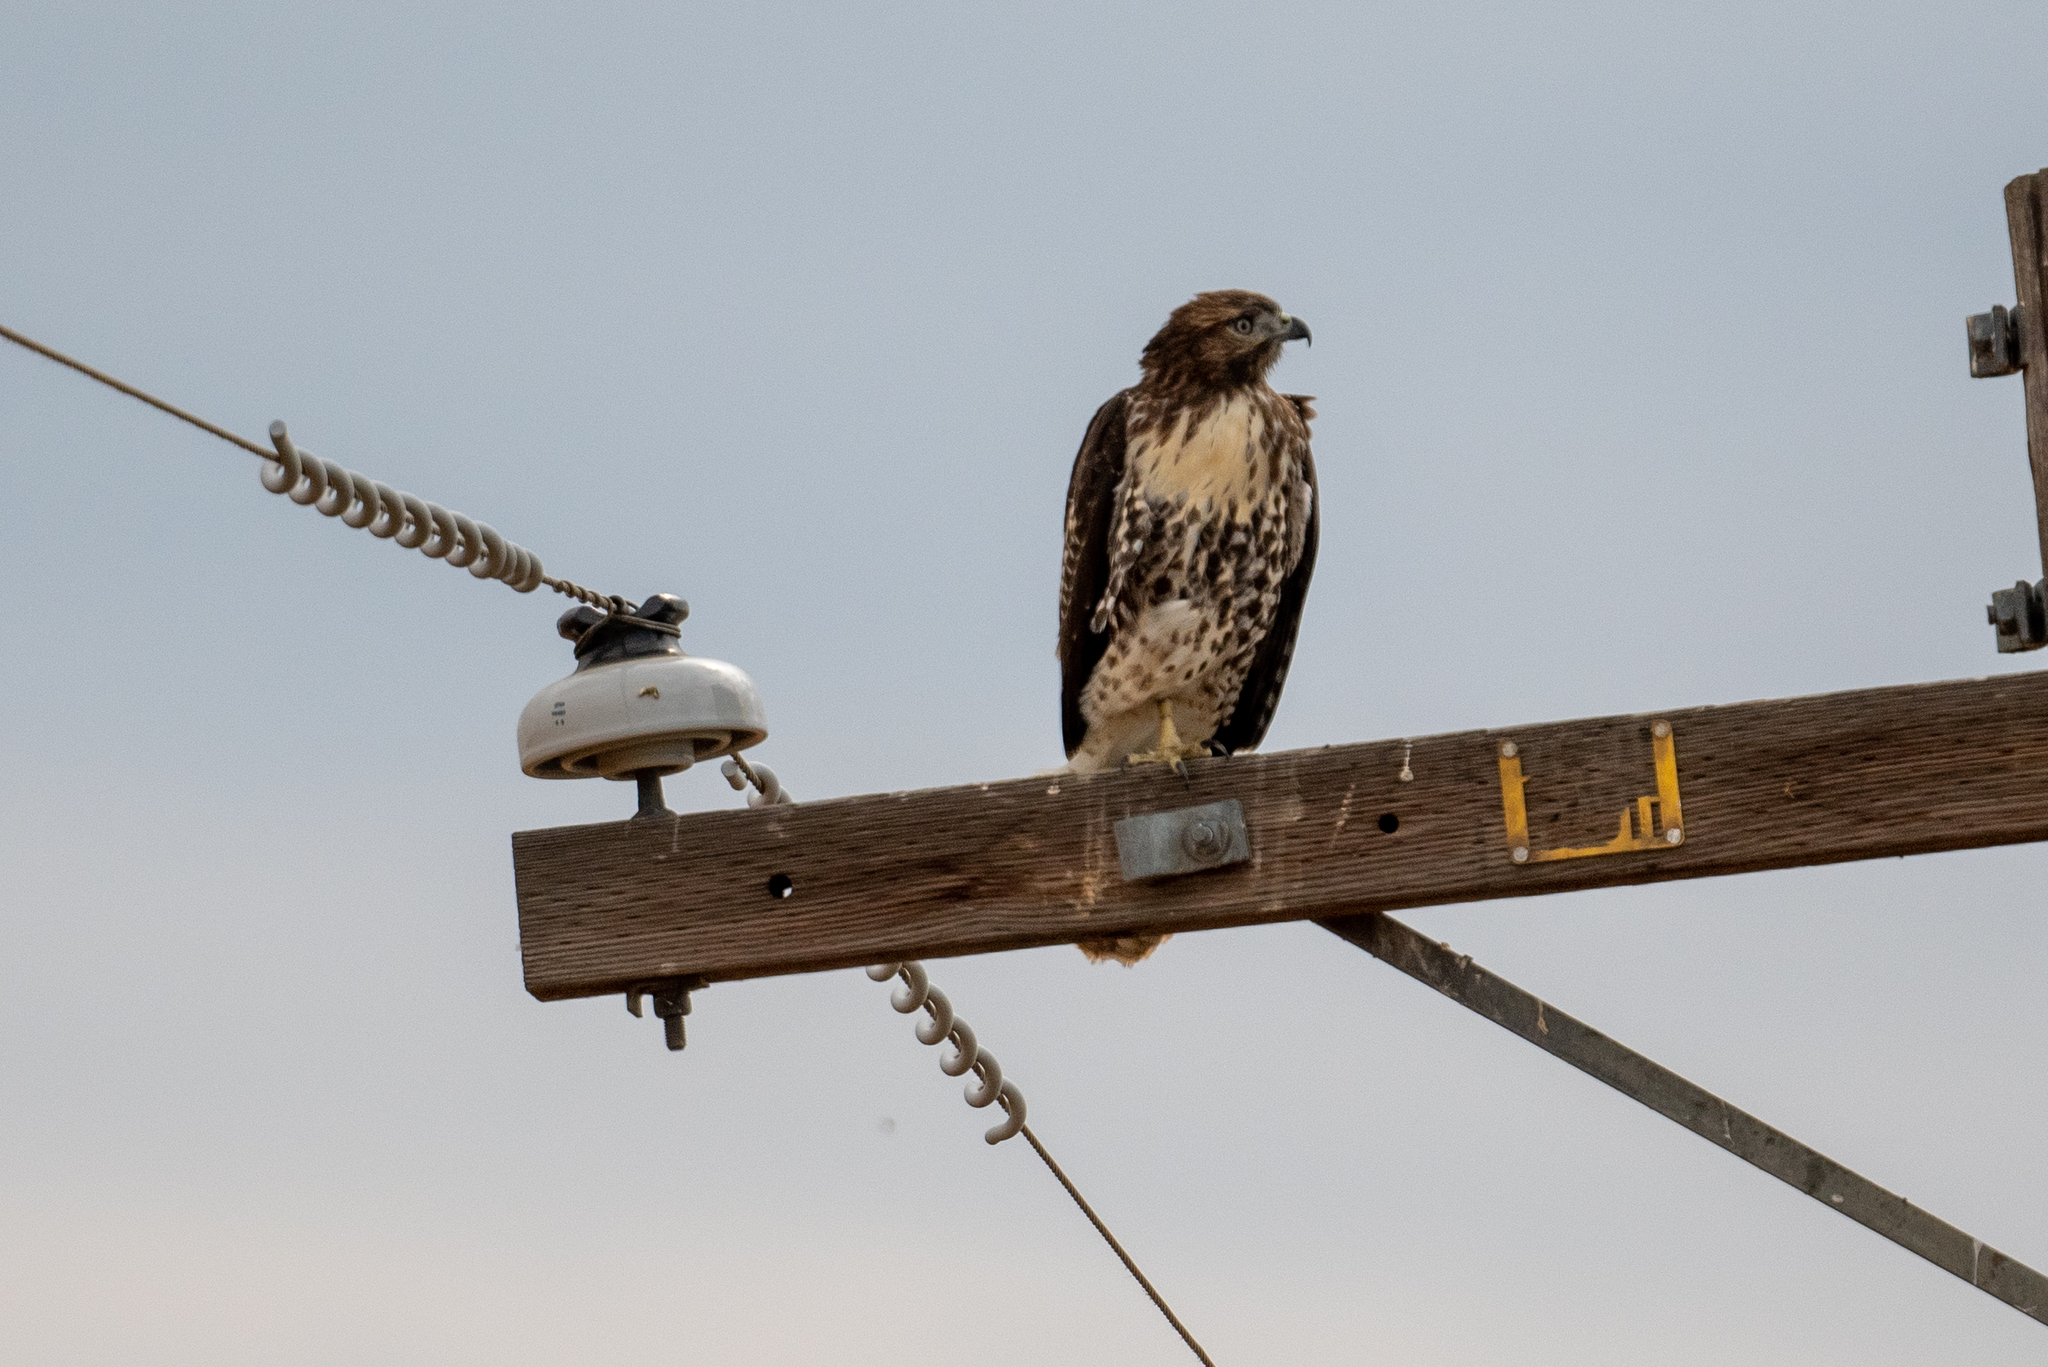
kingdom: Animalia
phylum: Chordata
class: Aves
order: Accipitriformes
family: Accipitridae
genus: Buteo
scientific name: Buteo jamaicensis
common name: Red-tailed hawk
